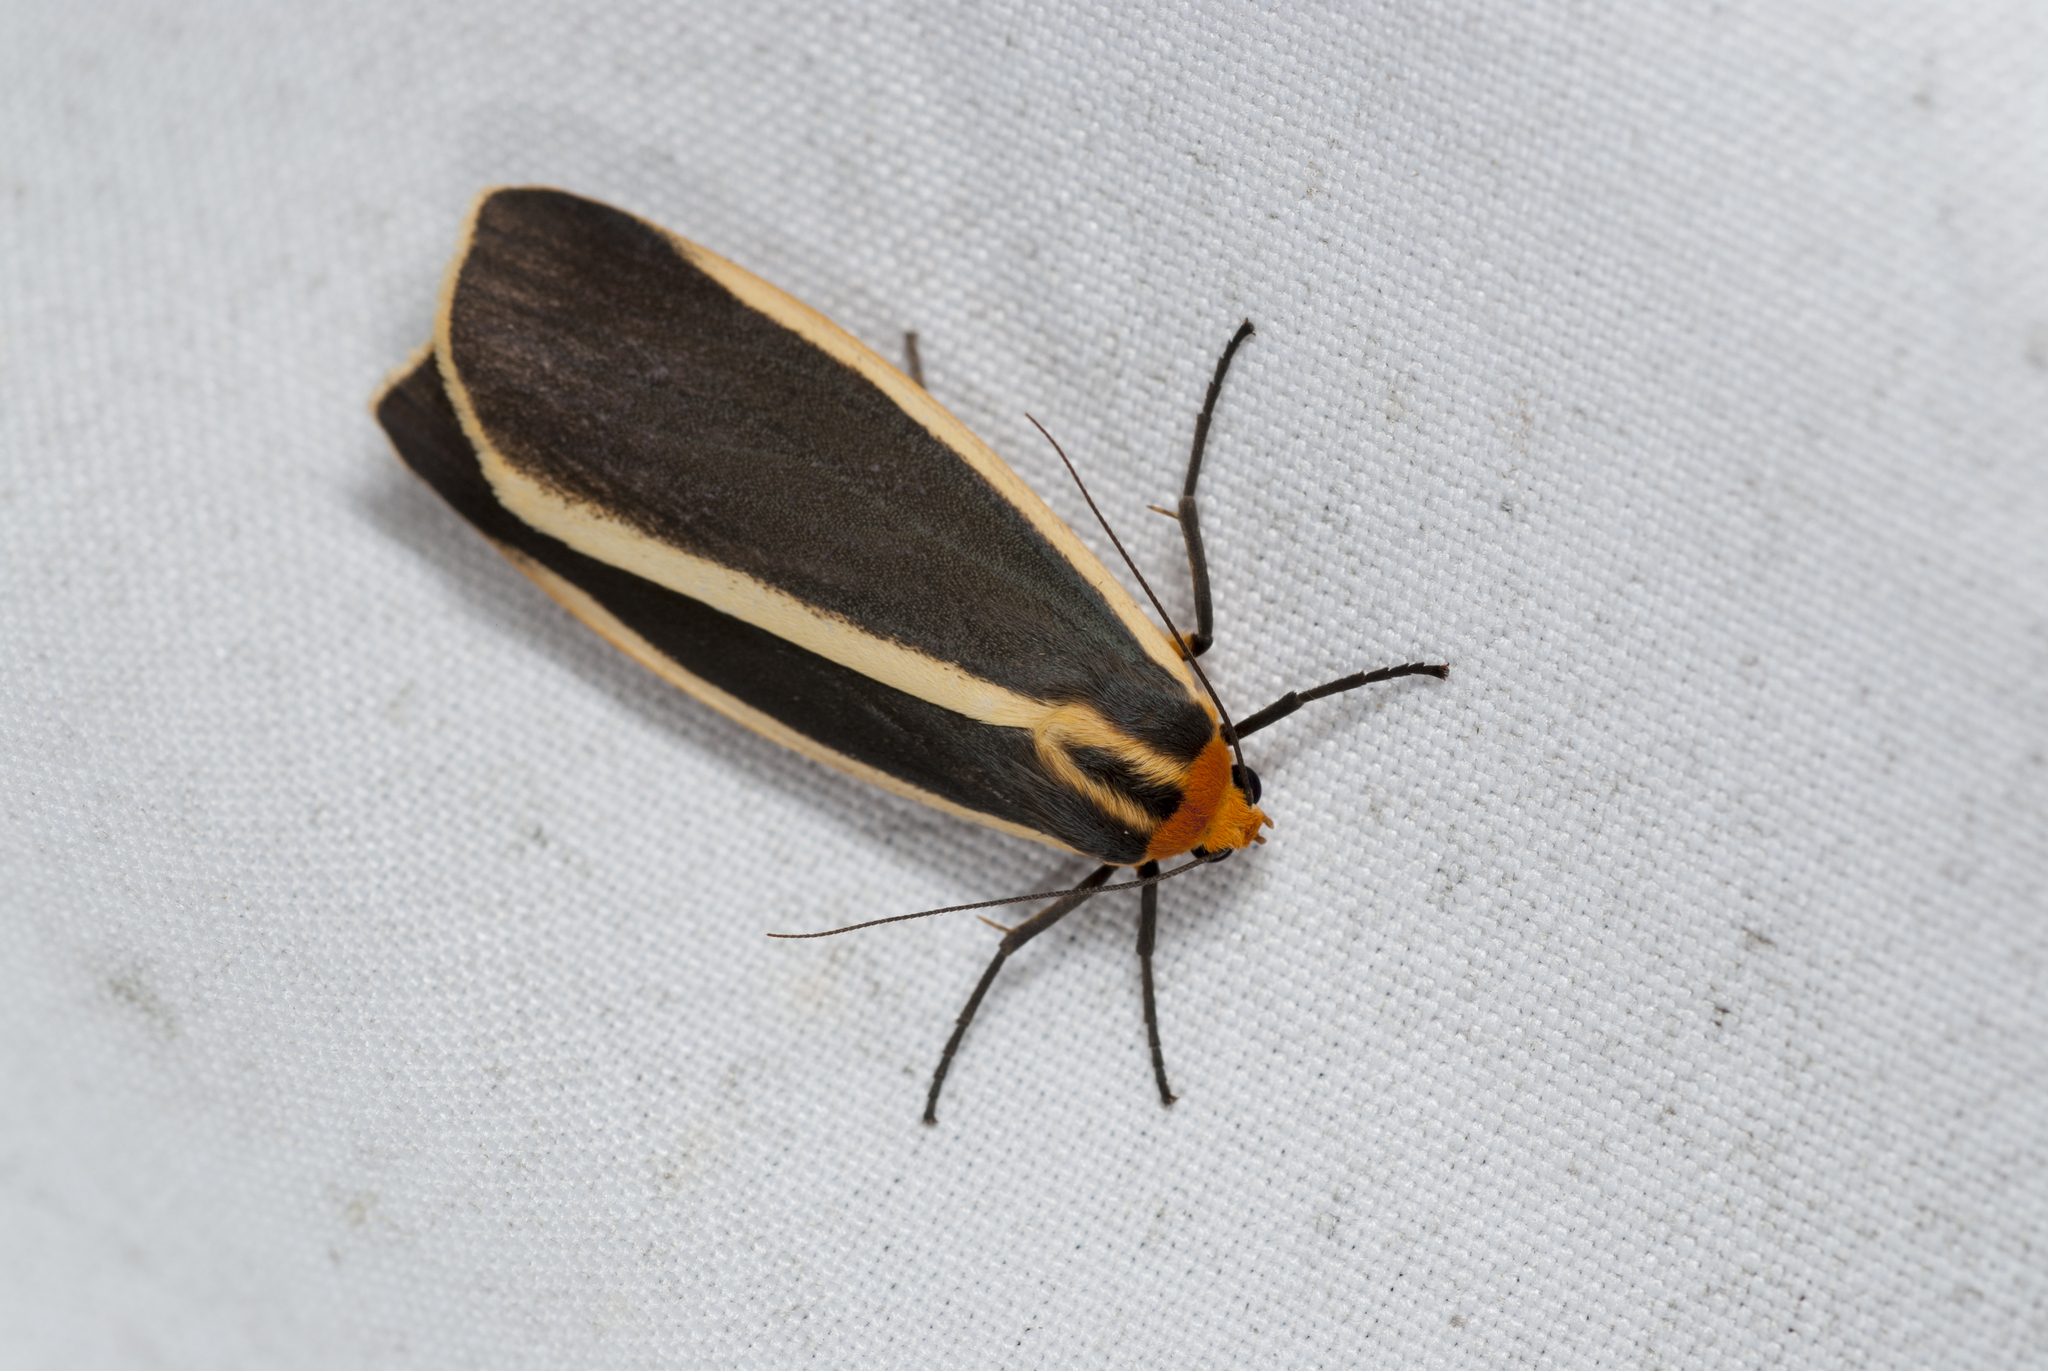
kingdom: Animalia
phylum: Arthropoda
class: Insecta
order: Lepidoptera
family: Erebidae
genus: Churinga
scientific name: Churinga virago
